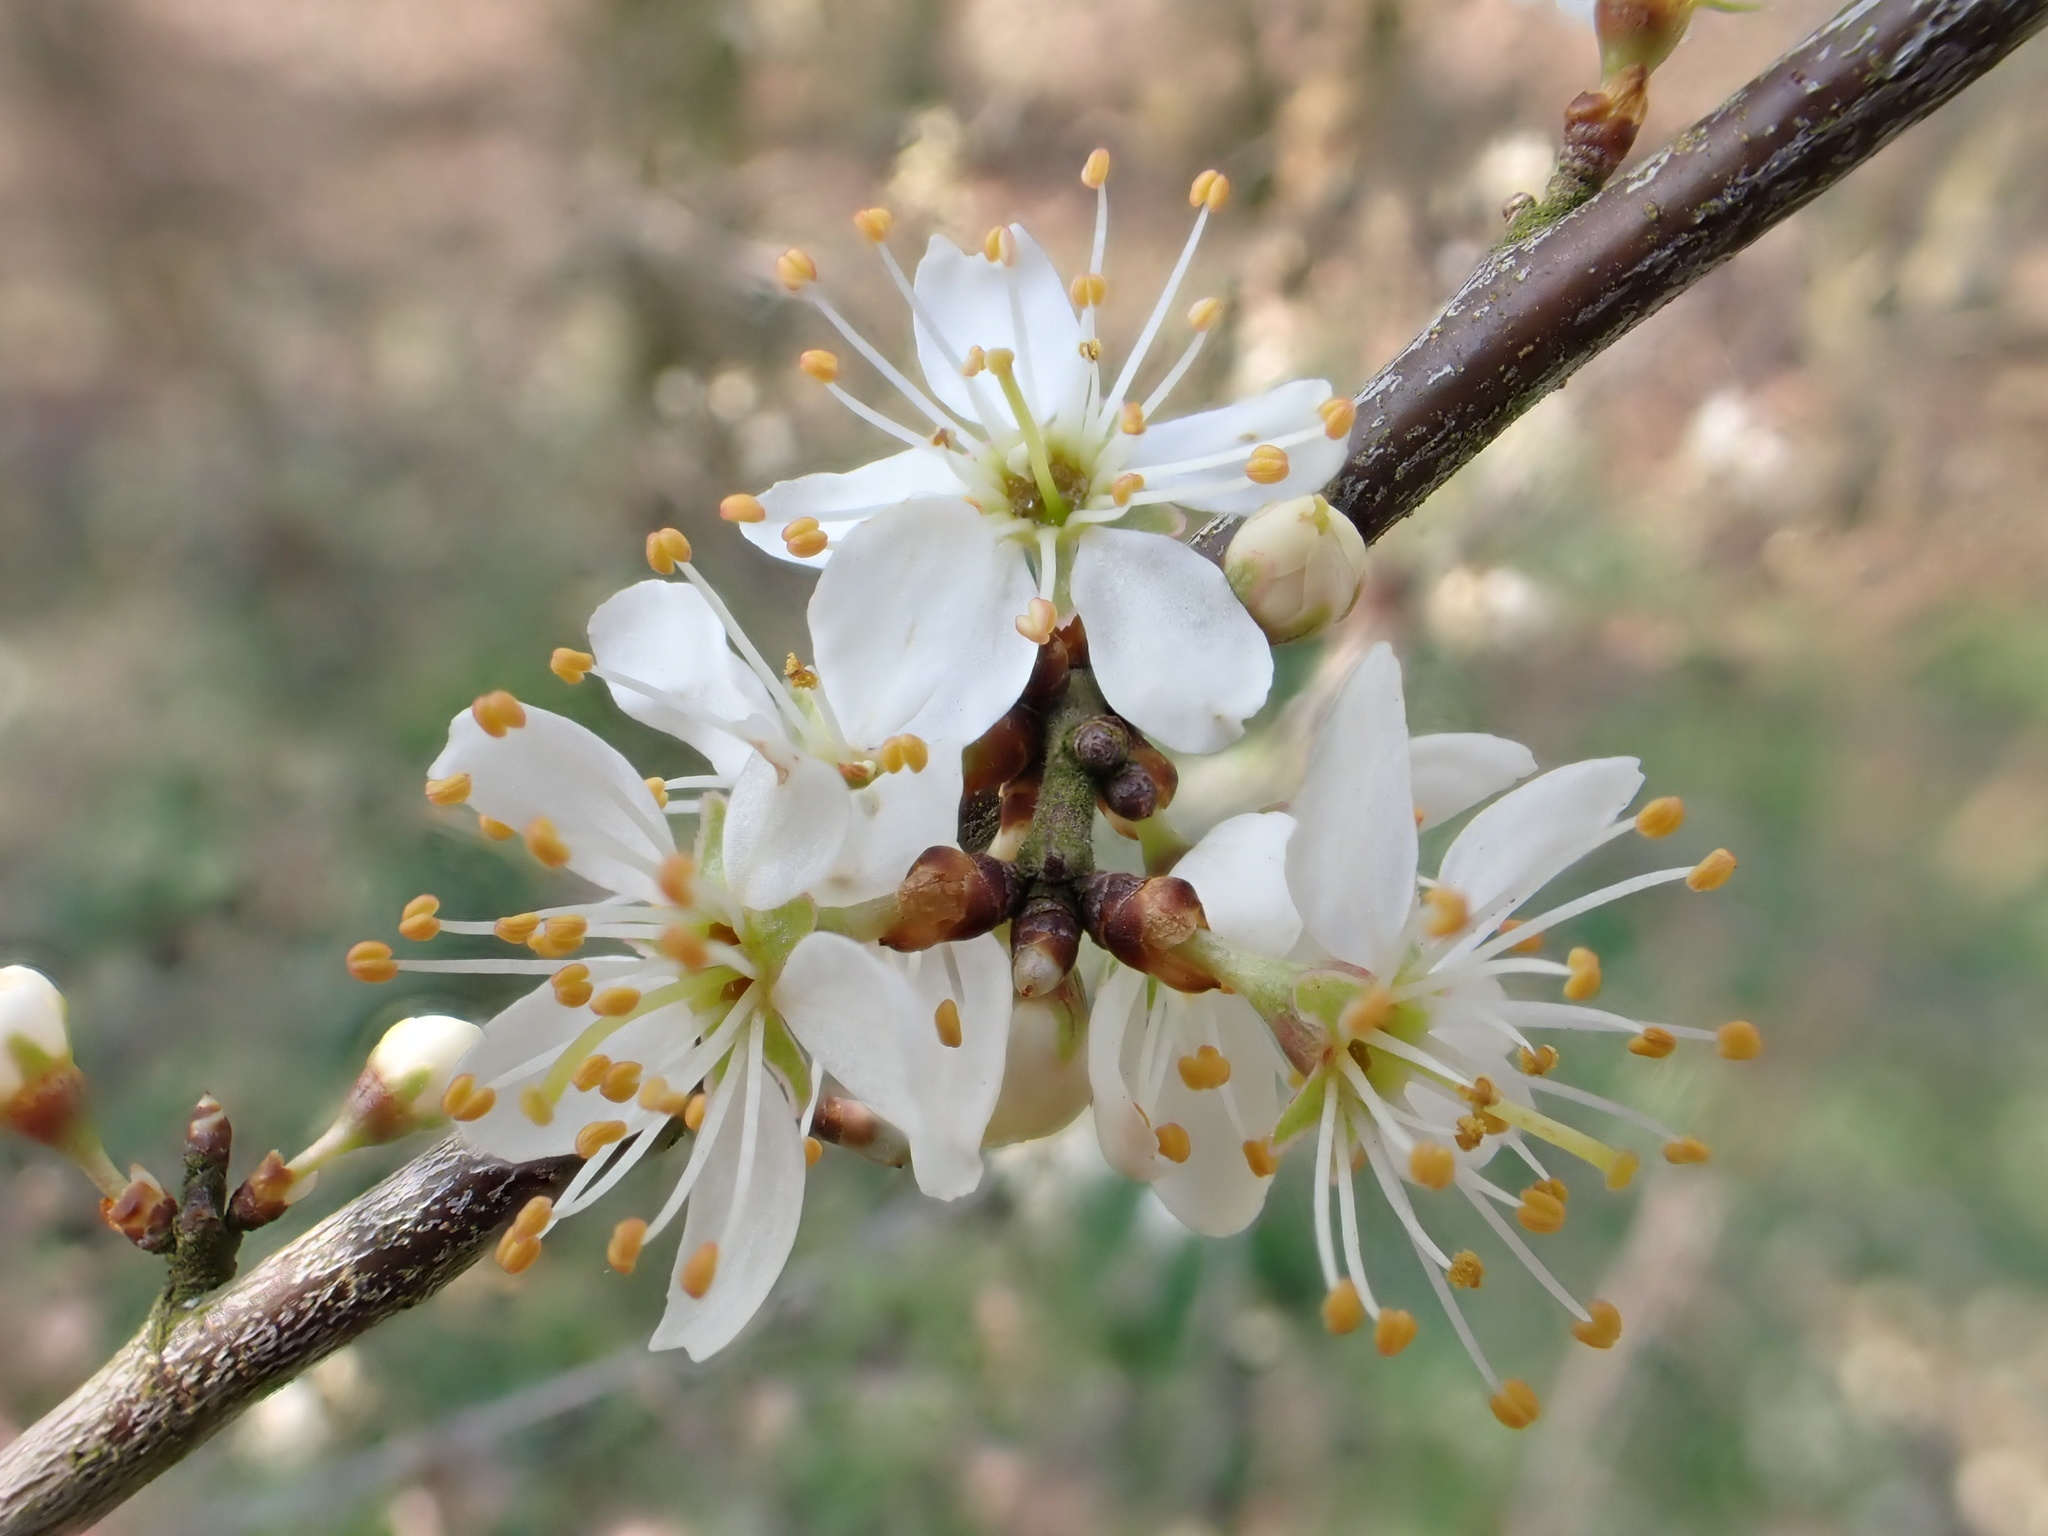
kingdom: Plantae
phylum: Tracheophyta
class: Magnoliopsida
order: Rosales
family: Rosaceae
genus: Prunus
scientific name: Prunus spinosa
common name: Blackthorn
